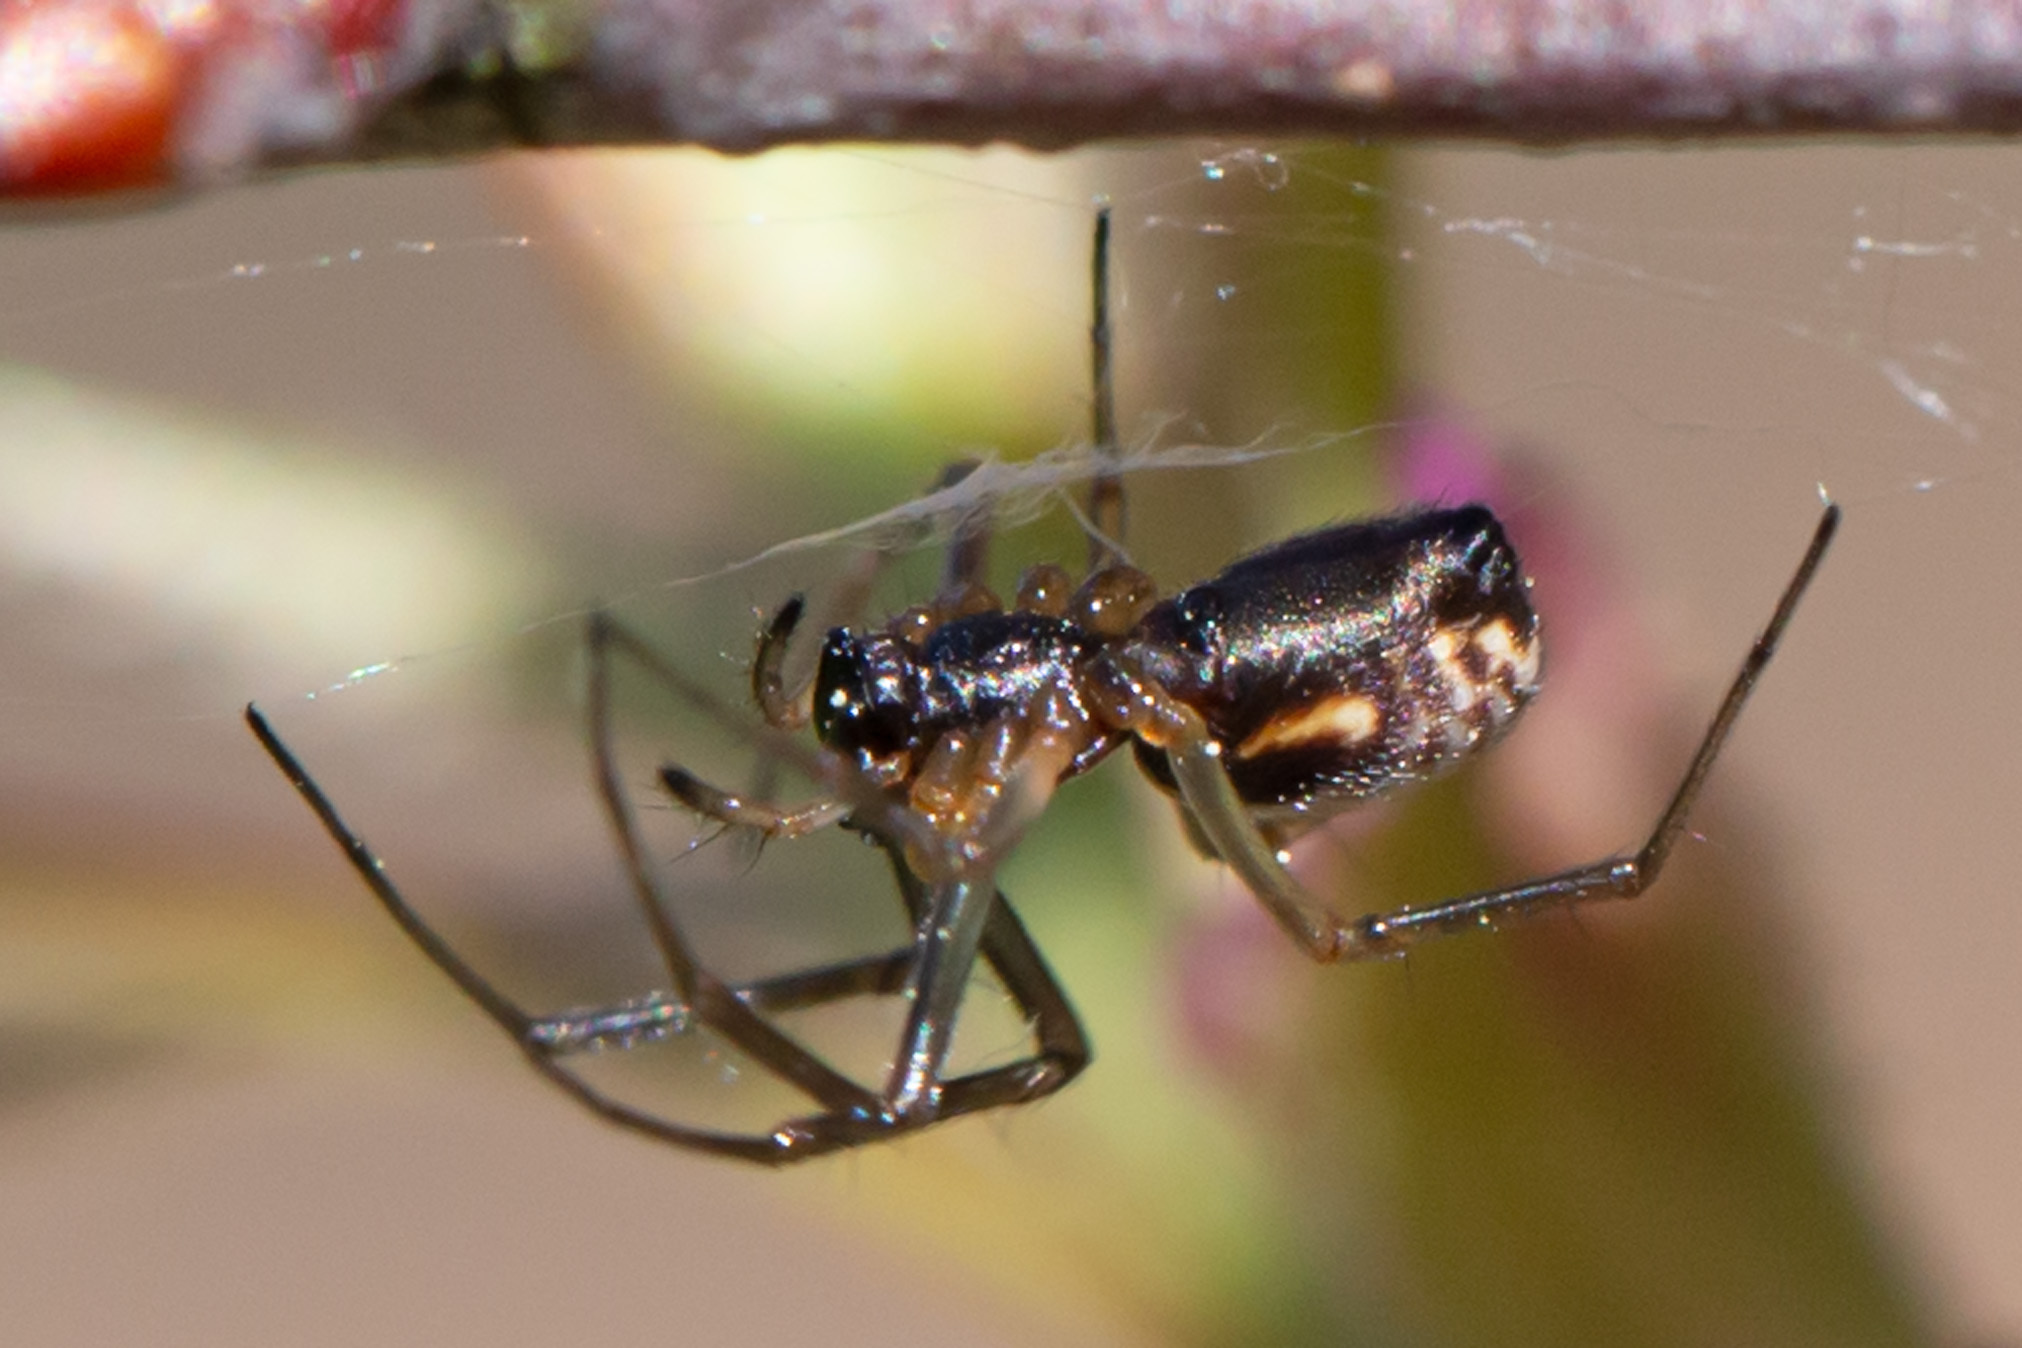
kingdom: Animalia
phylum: Arthropoda
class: Arachnida
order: Araneae
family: Linyphiidae
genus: Frontinella
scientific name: Frontinella pyramitela
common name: Bowl-and-doily spider
